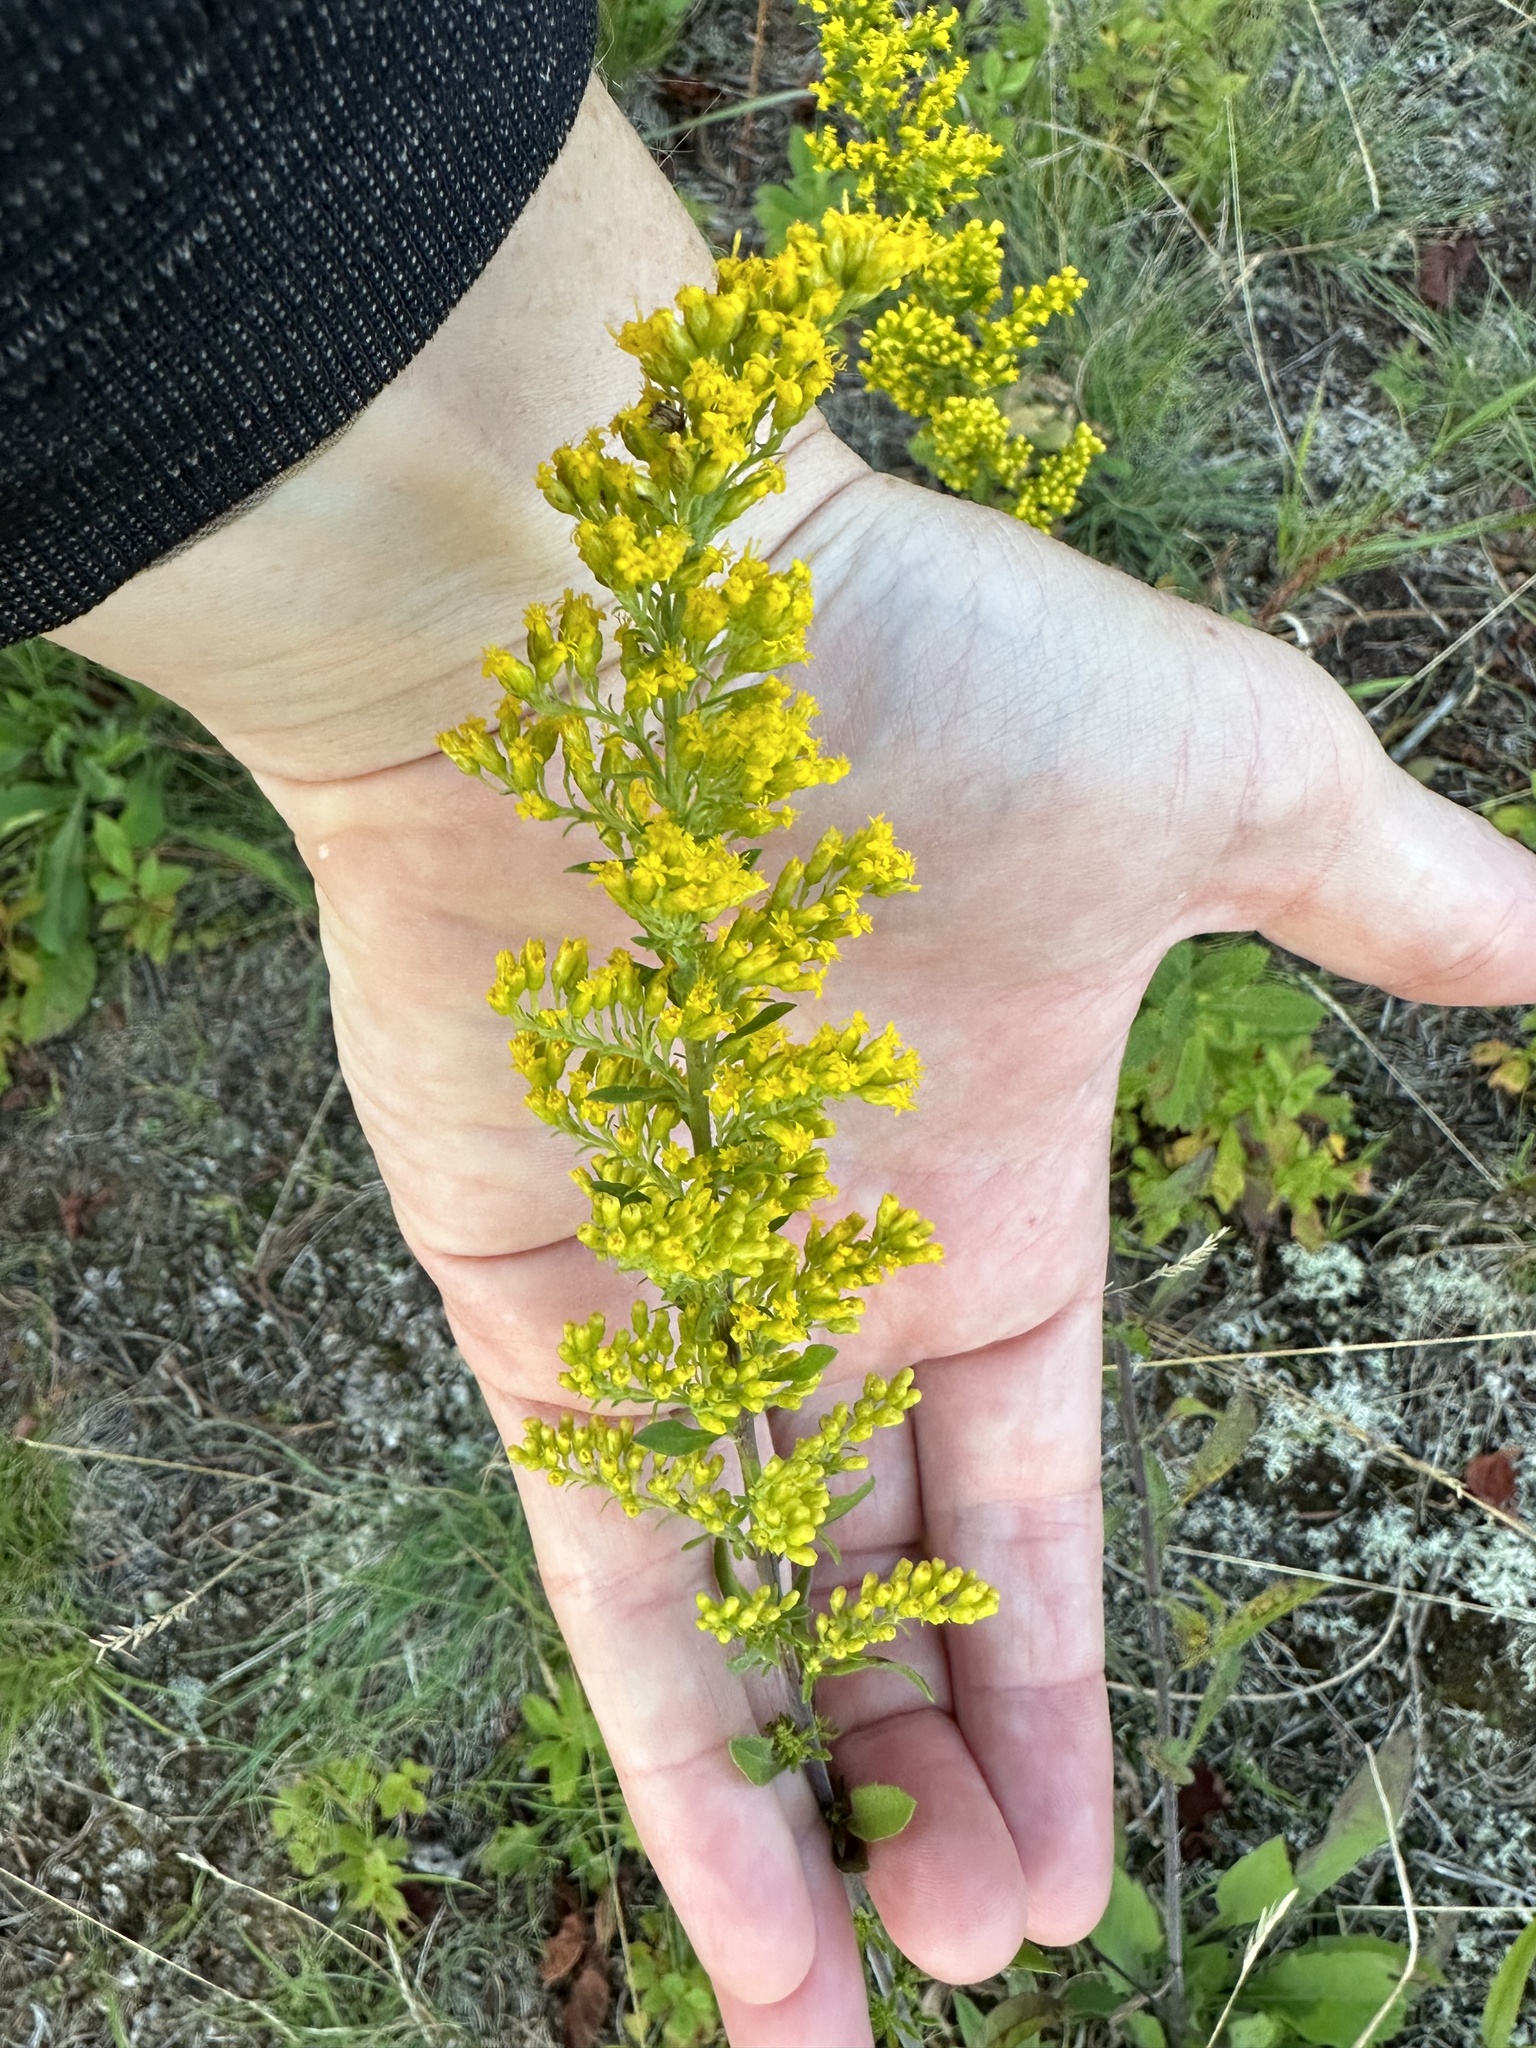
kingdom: Plantae
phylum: Tracheophyta
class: Magnoliopsida
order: Asterales
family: Asteraceae
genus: Solidago
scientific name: Solidago nemoralis
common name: Grey goldenrod
